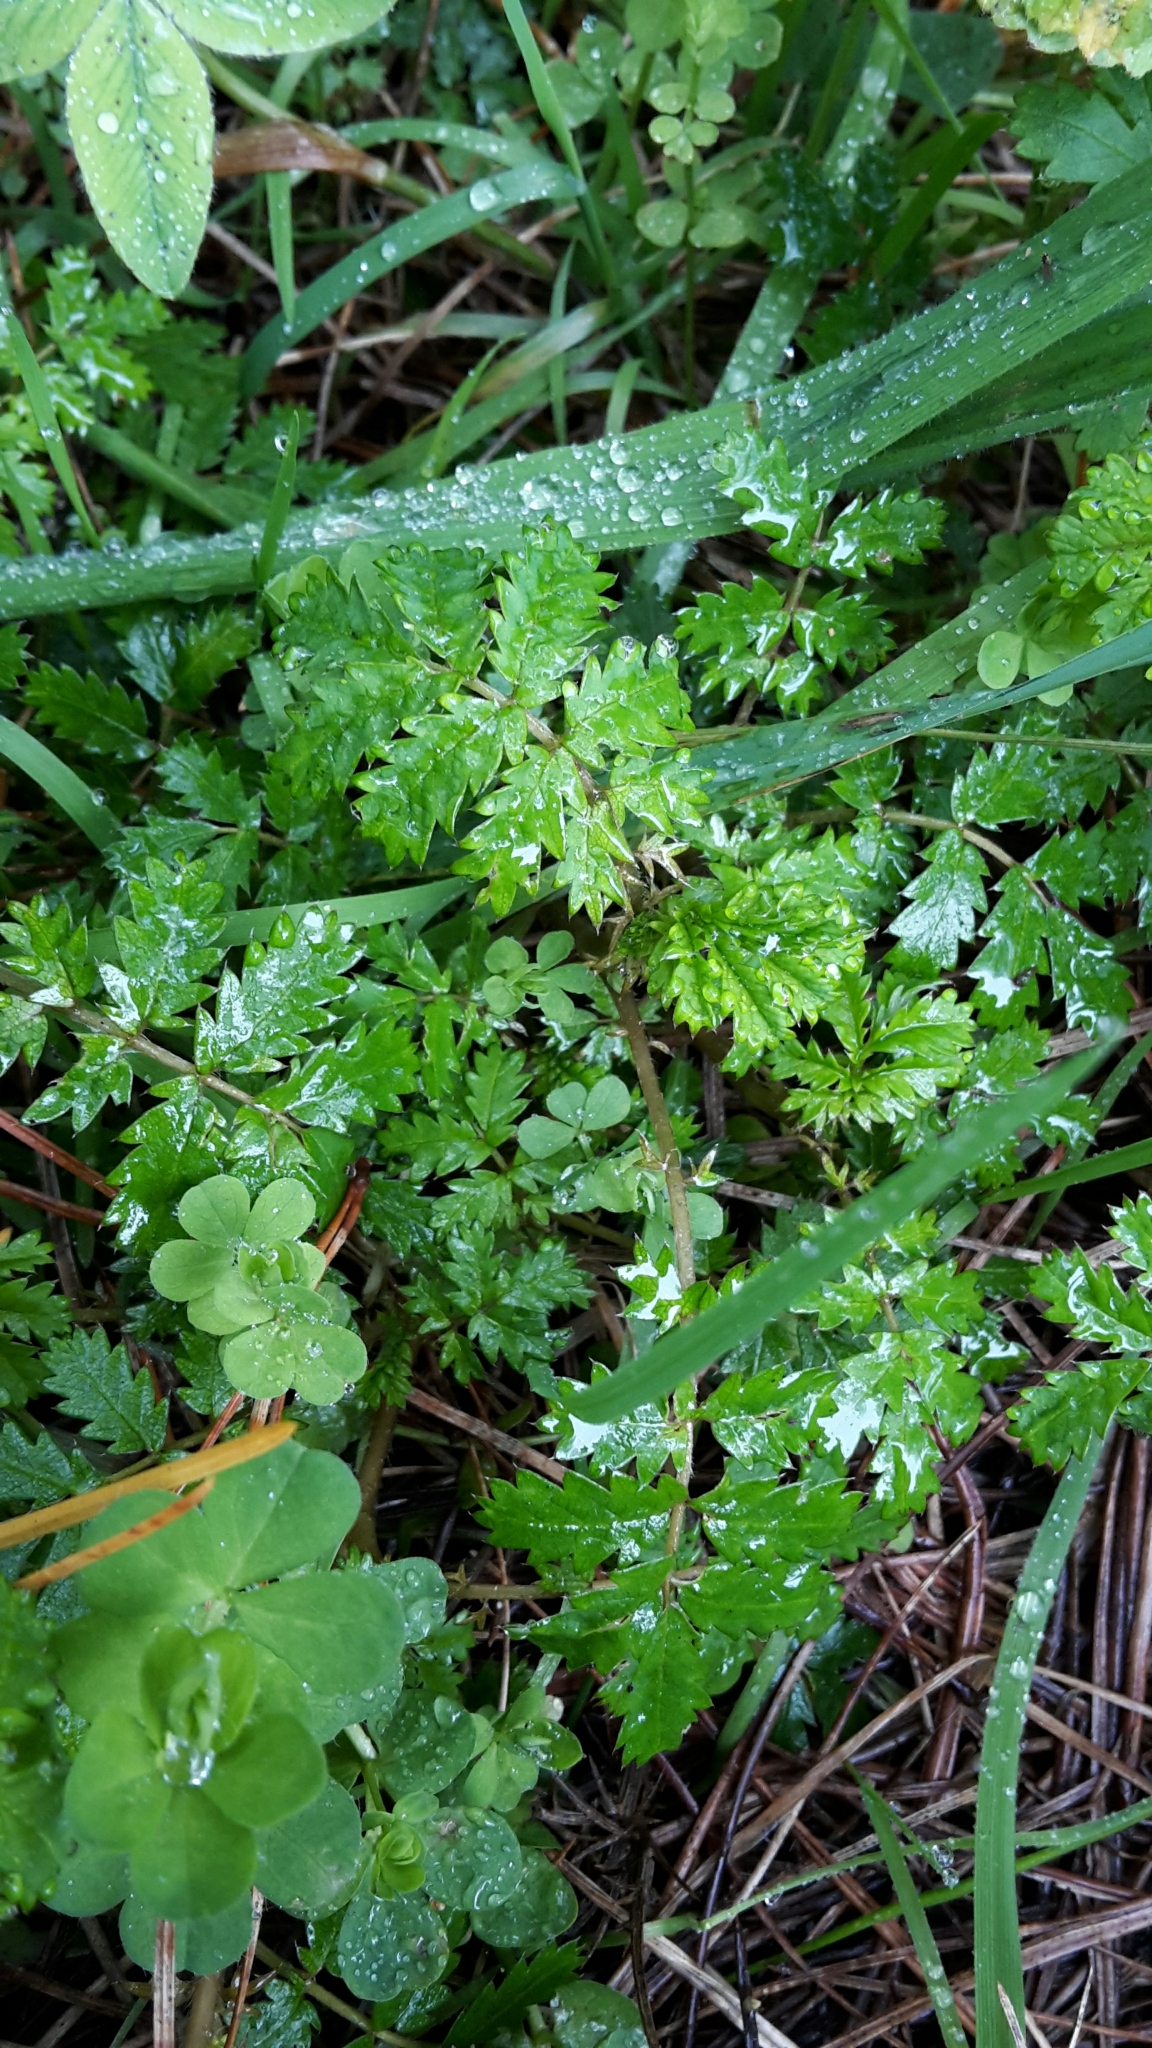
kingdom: Plantae
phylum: Tracheophyta
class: Magnoliopsida
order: Rosales
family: Rosaceae
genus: Acaena
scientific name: Acaena novae-zelandiae
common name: Pirri-pirri-bur
